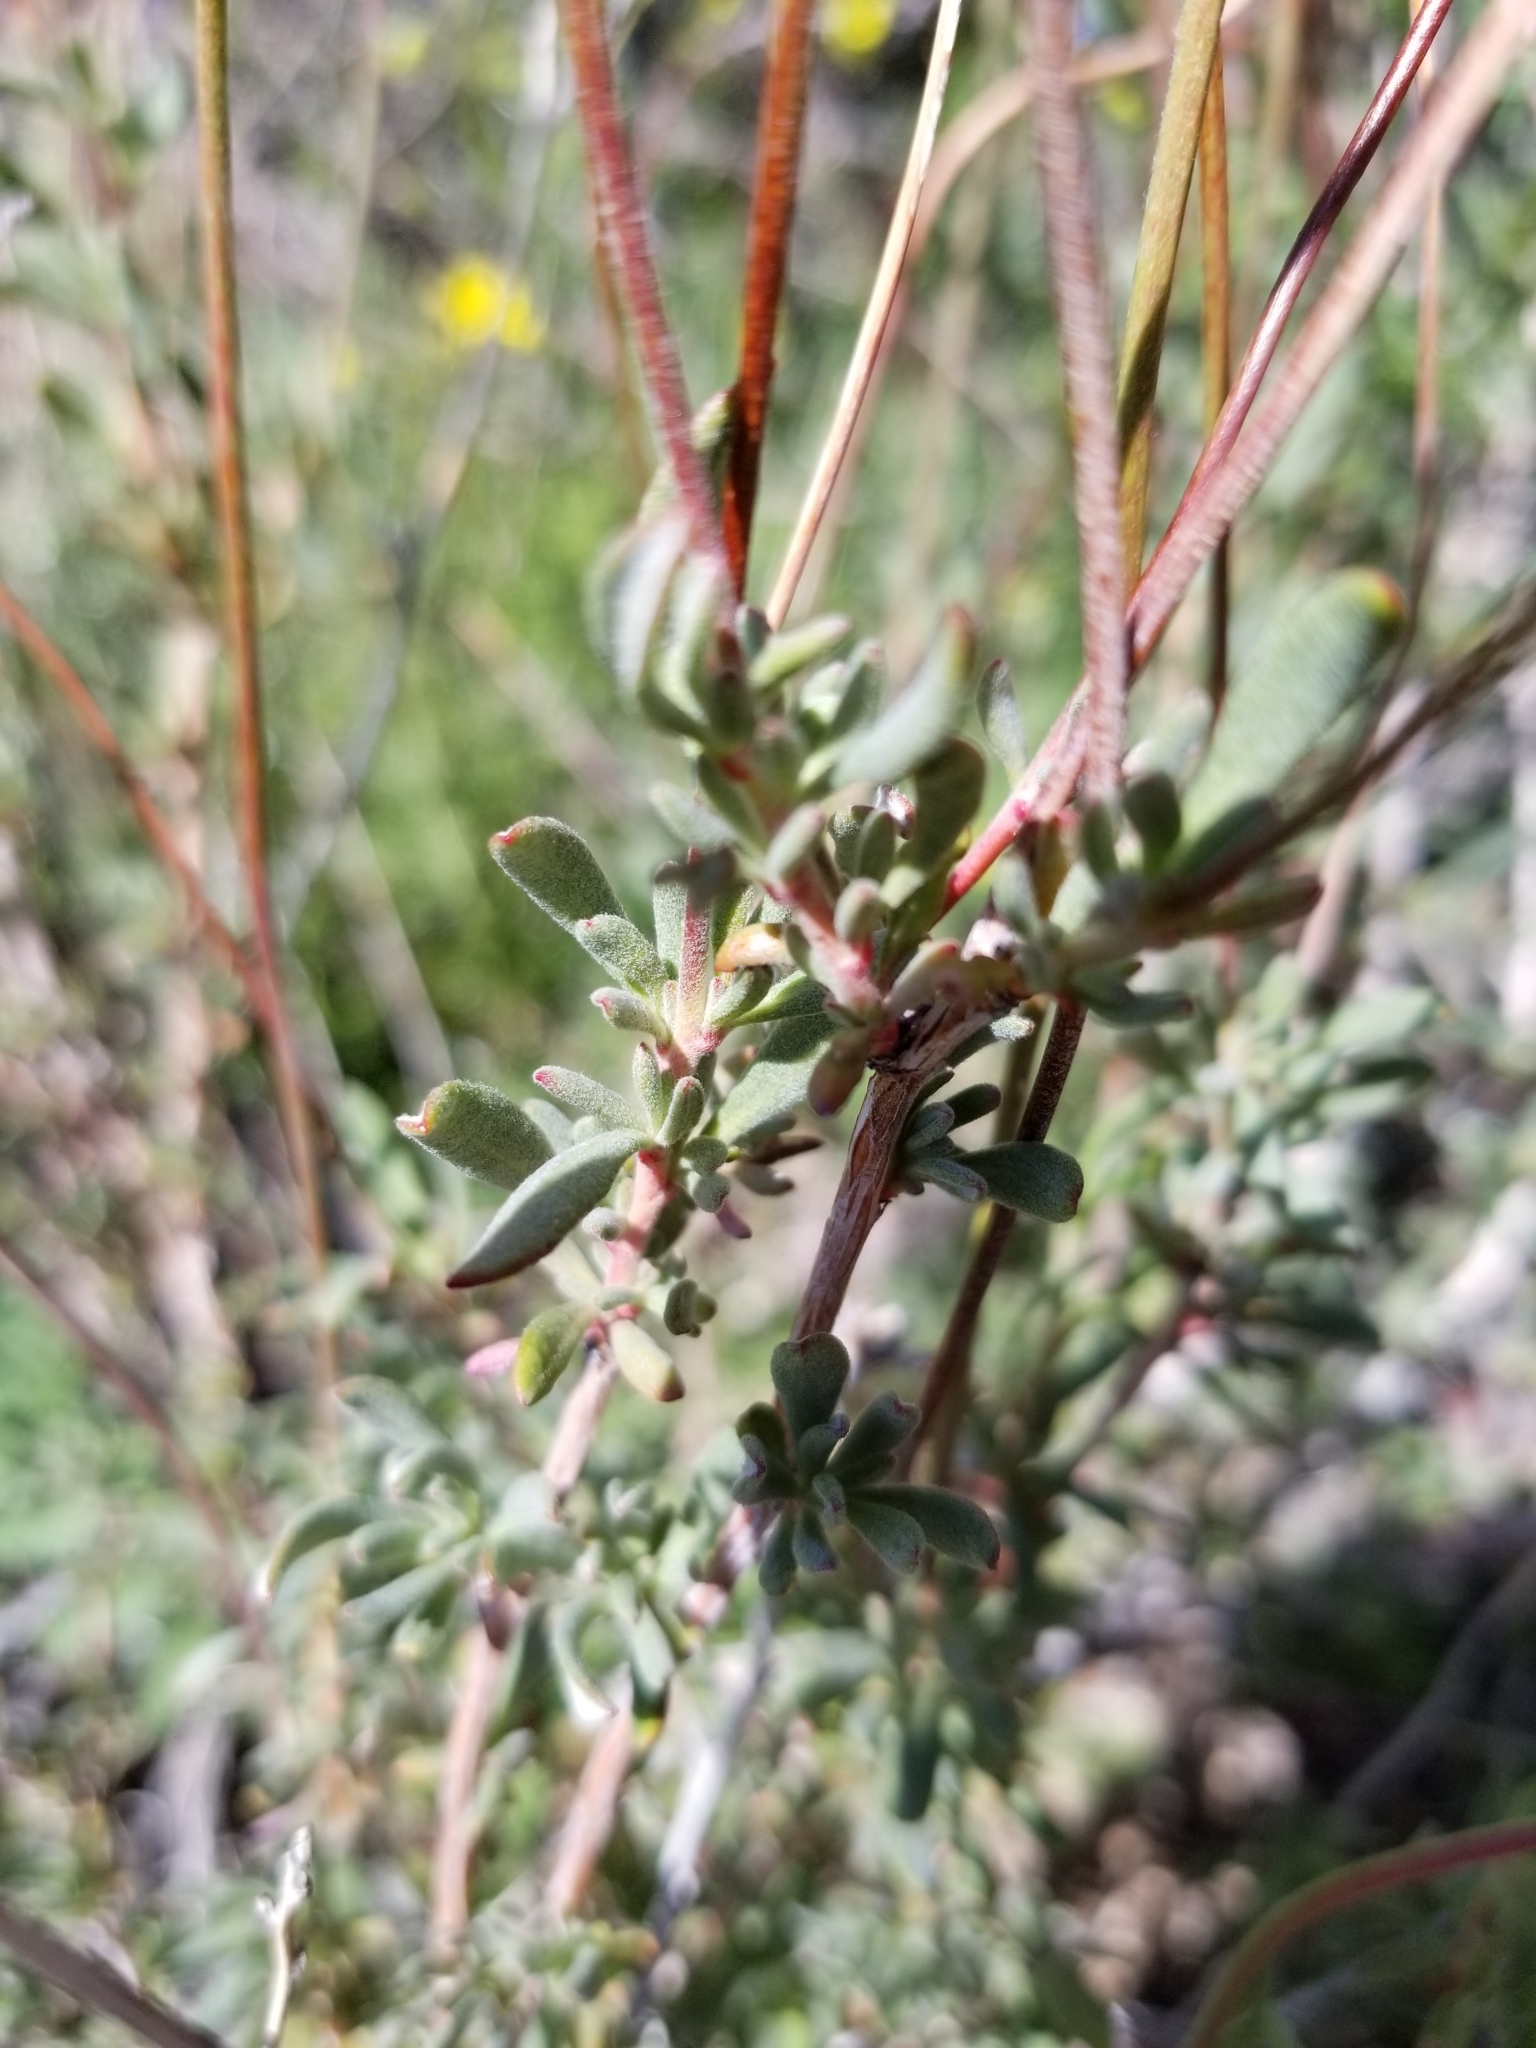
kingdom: Plantae
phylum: Tracheophyta
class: Magnoliopsida
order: Caryophyllales
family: Polygonaceae
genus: Eriogonum
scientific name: Eriogonum fasciculatum
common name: California wild buckwheat
